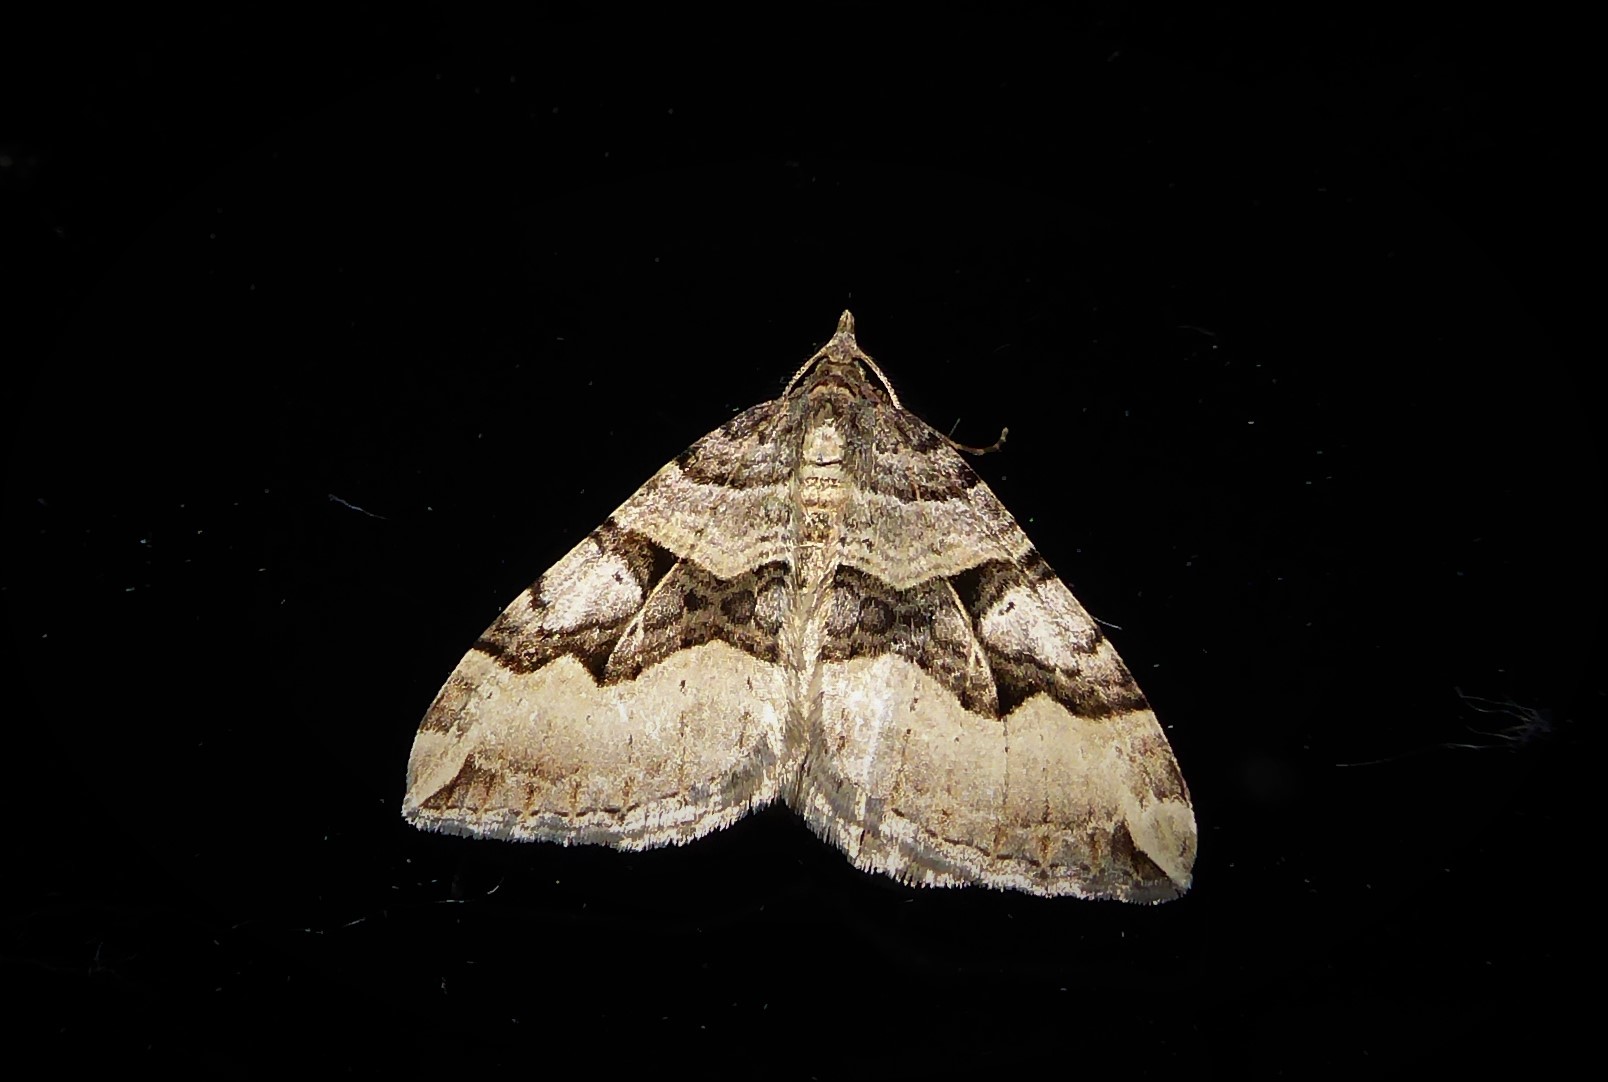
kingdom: Animalia
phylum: Arthropoda
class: Insecta
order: Lepidoptera
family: Geometridae
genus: Xanthorhoe
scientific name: Xanthorhoe semifissata
